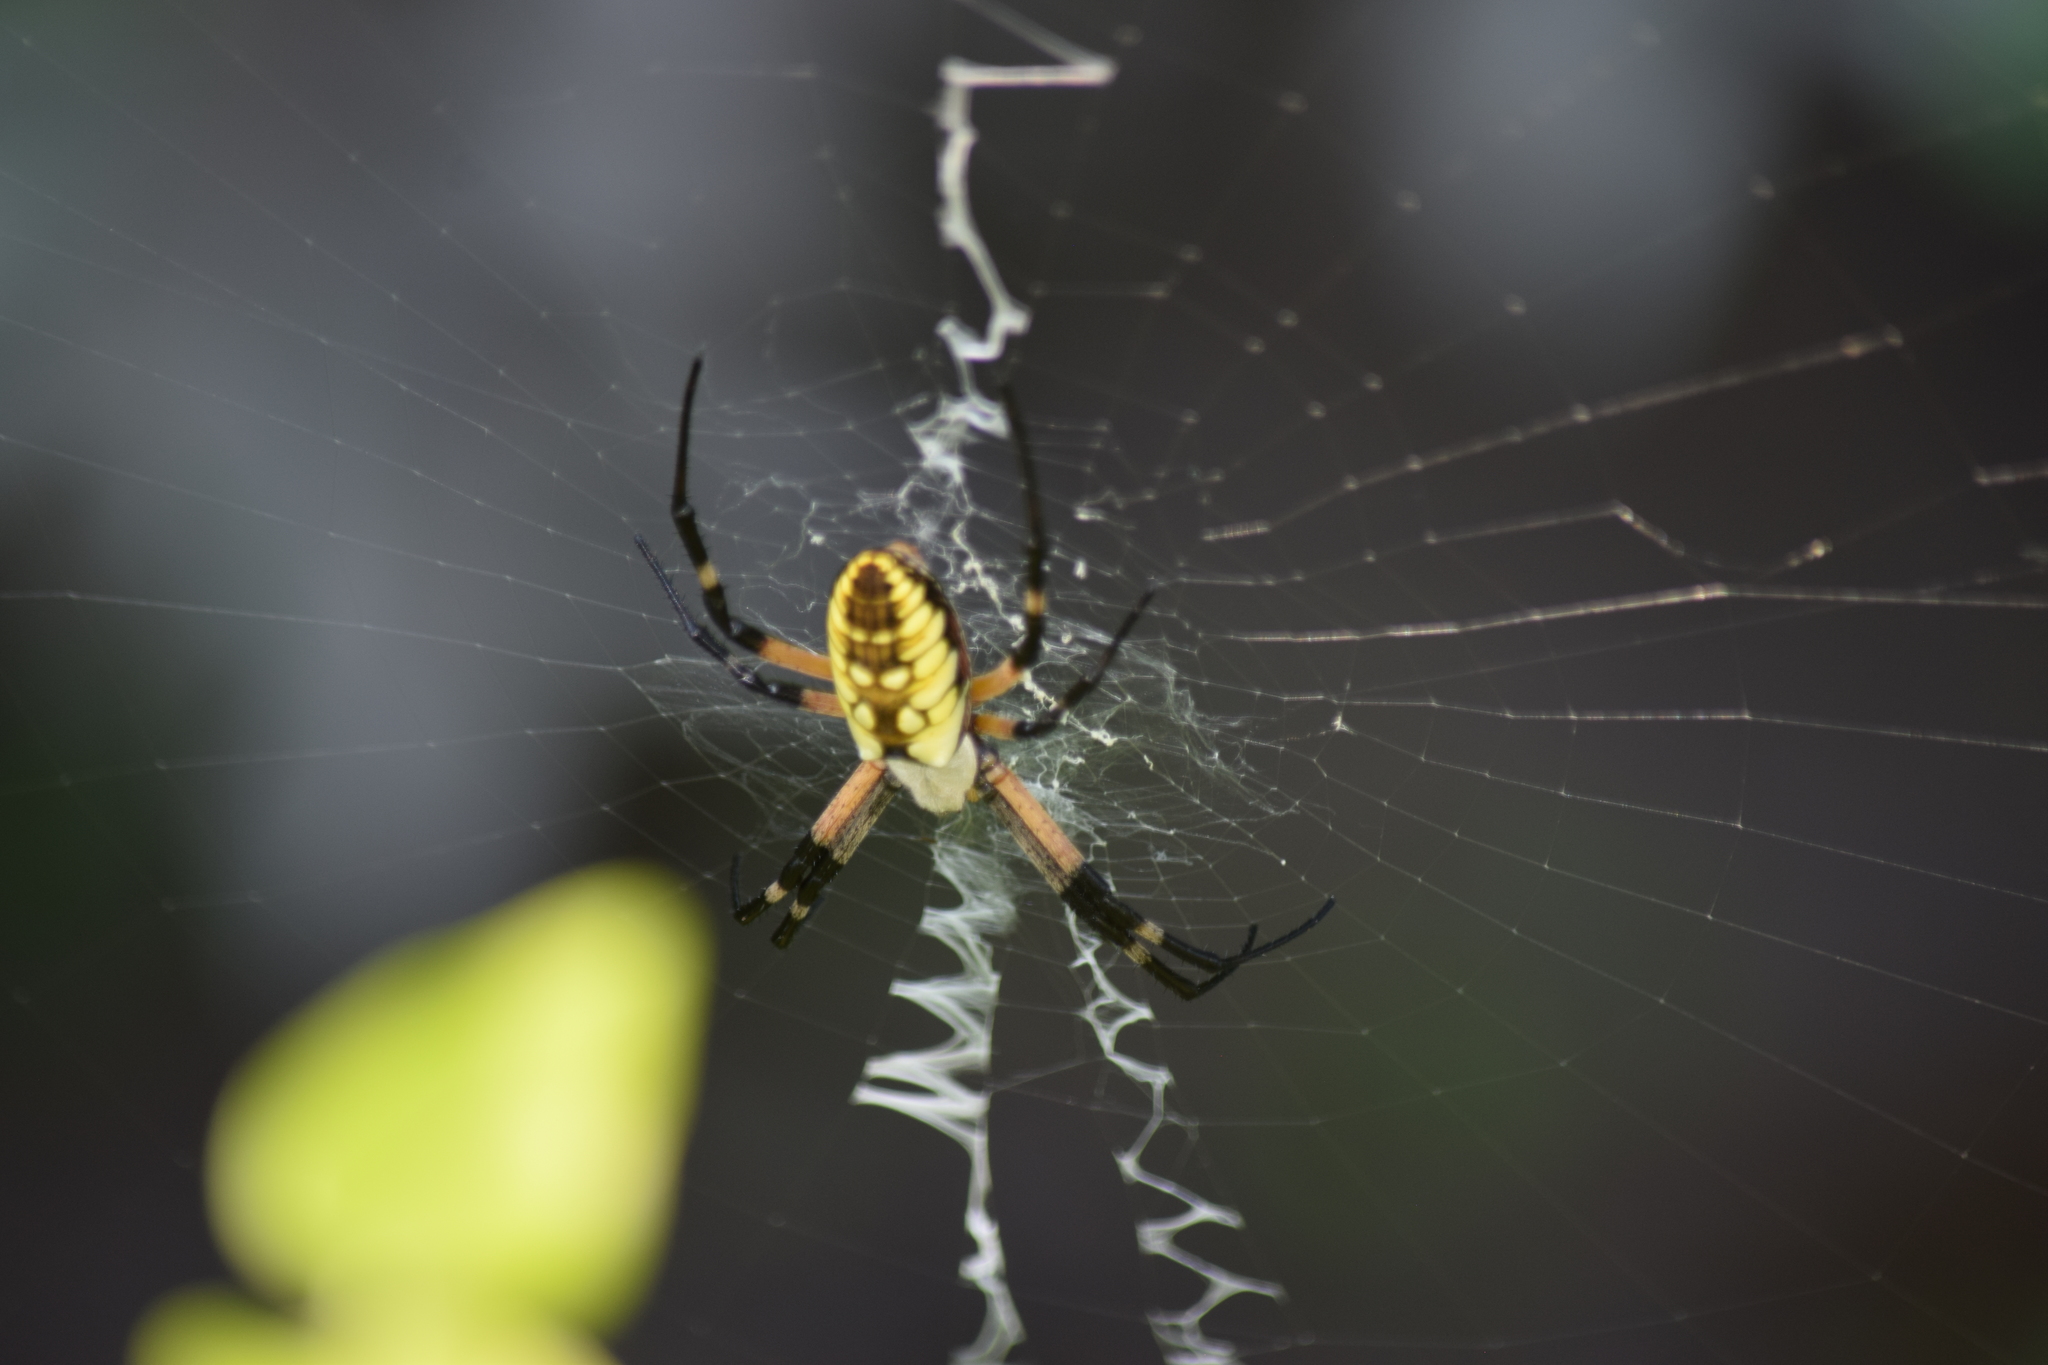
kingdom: Animalia
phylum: Arthropoda
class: Arachnida
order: Araneae
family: Araneidae
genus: Argiope
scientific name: Argiope aurantia
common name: Orb weavers
